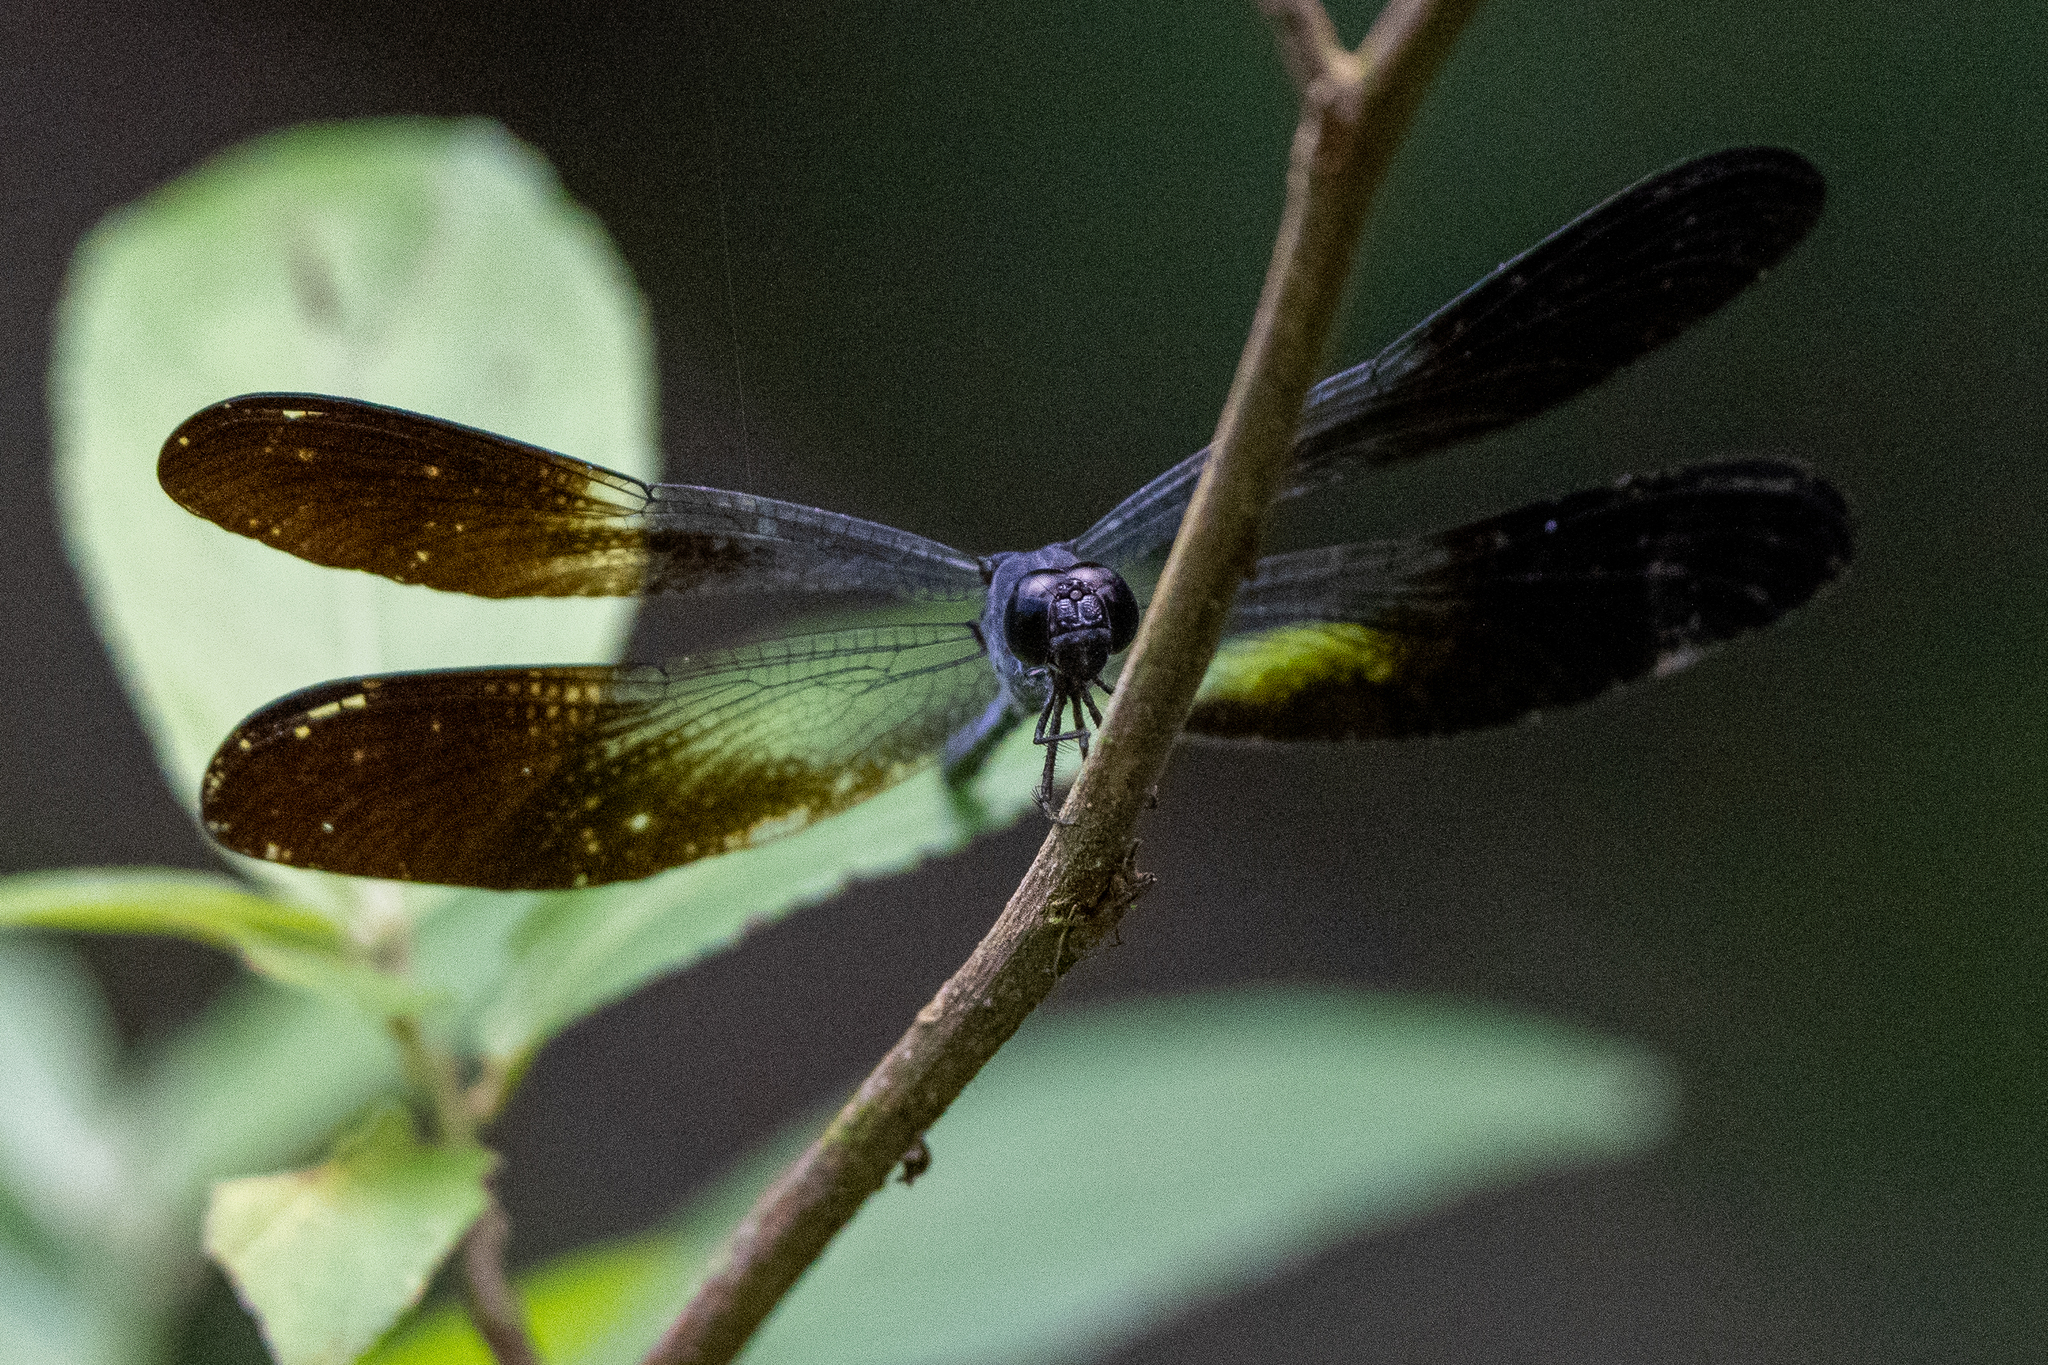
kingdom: Animalia
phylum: Arthropoda
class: Insecta
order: Odonata
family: Libellulidae
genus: Uracis
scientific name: Uracis fastigiata
